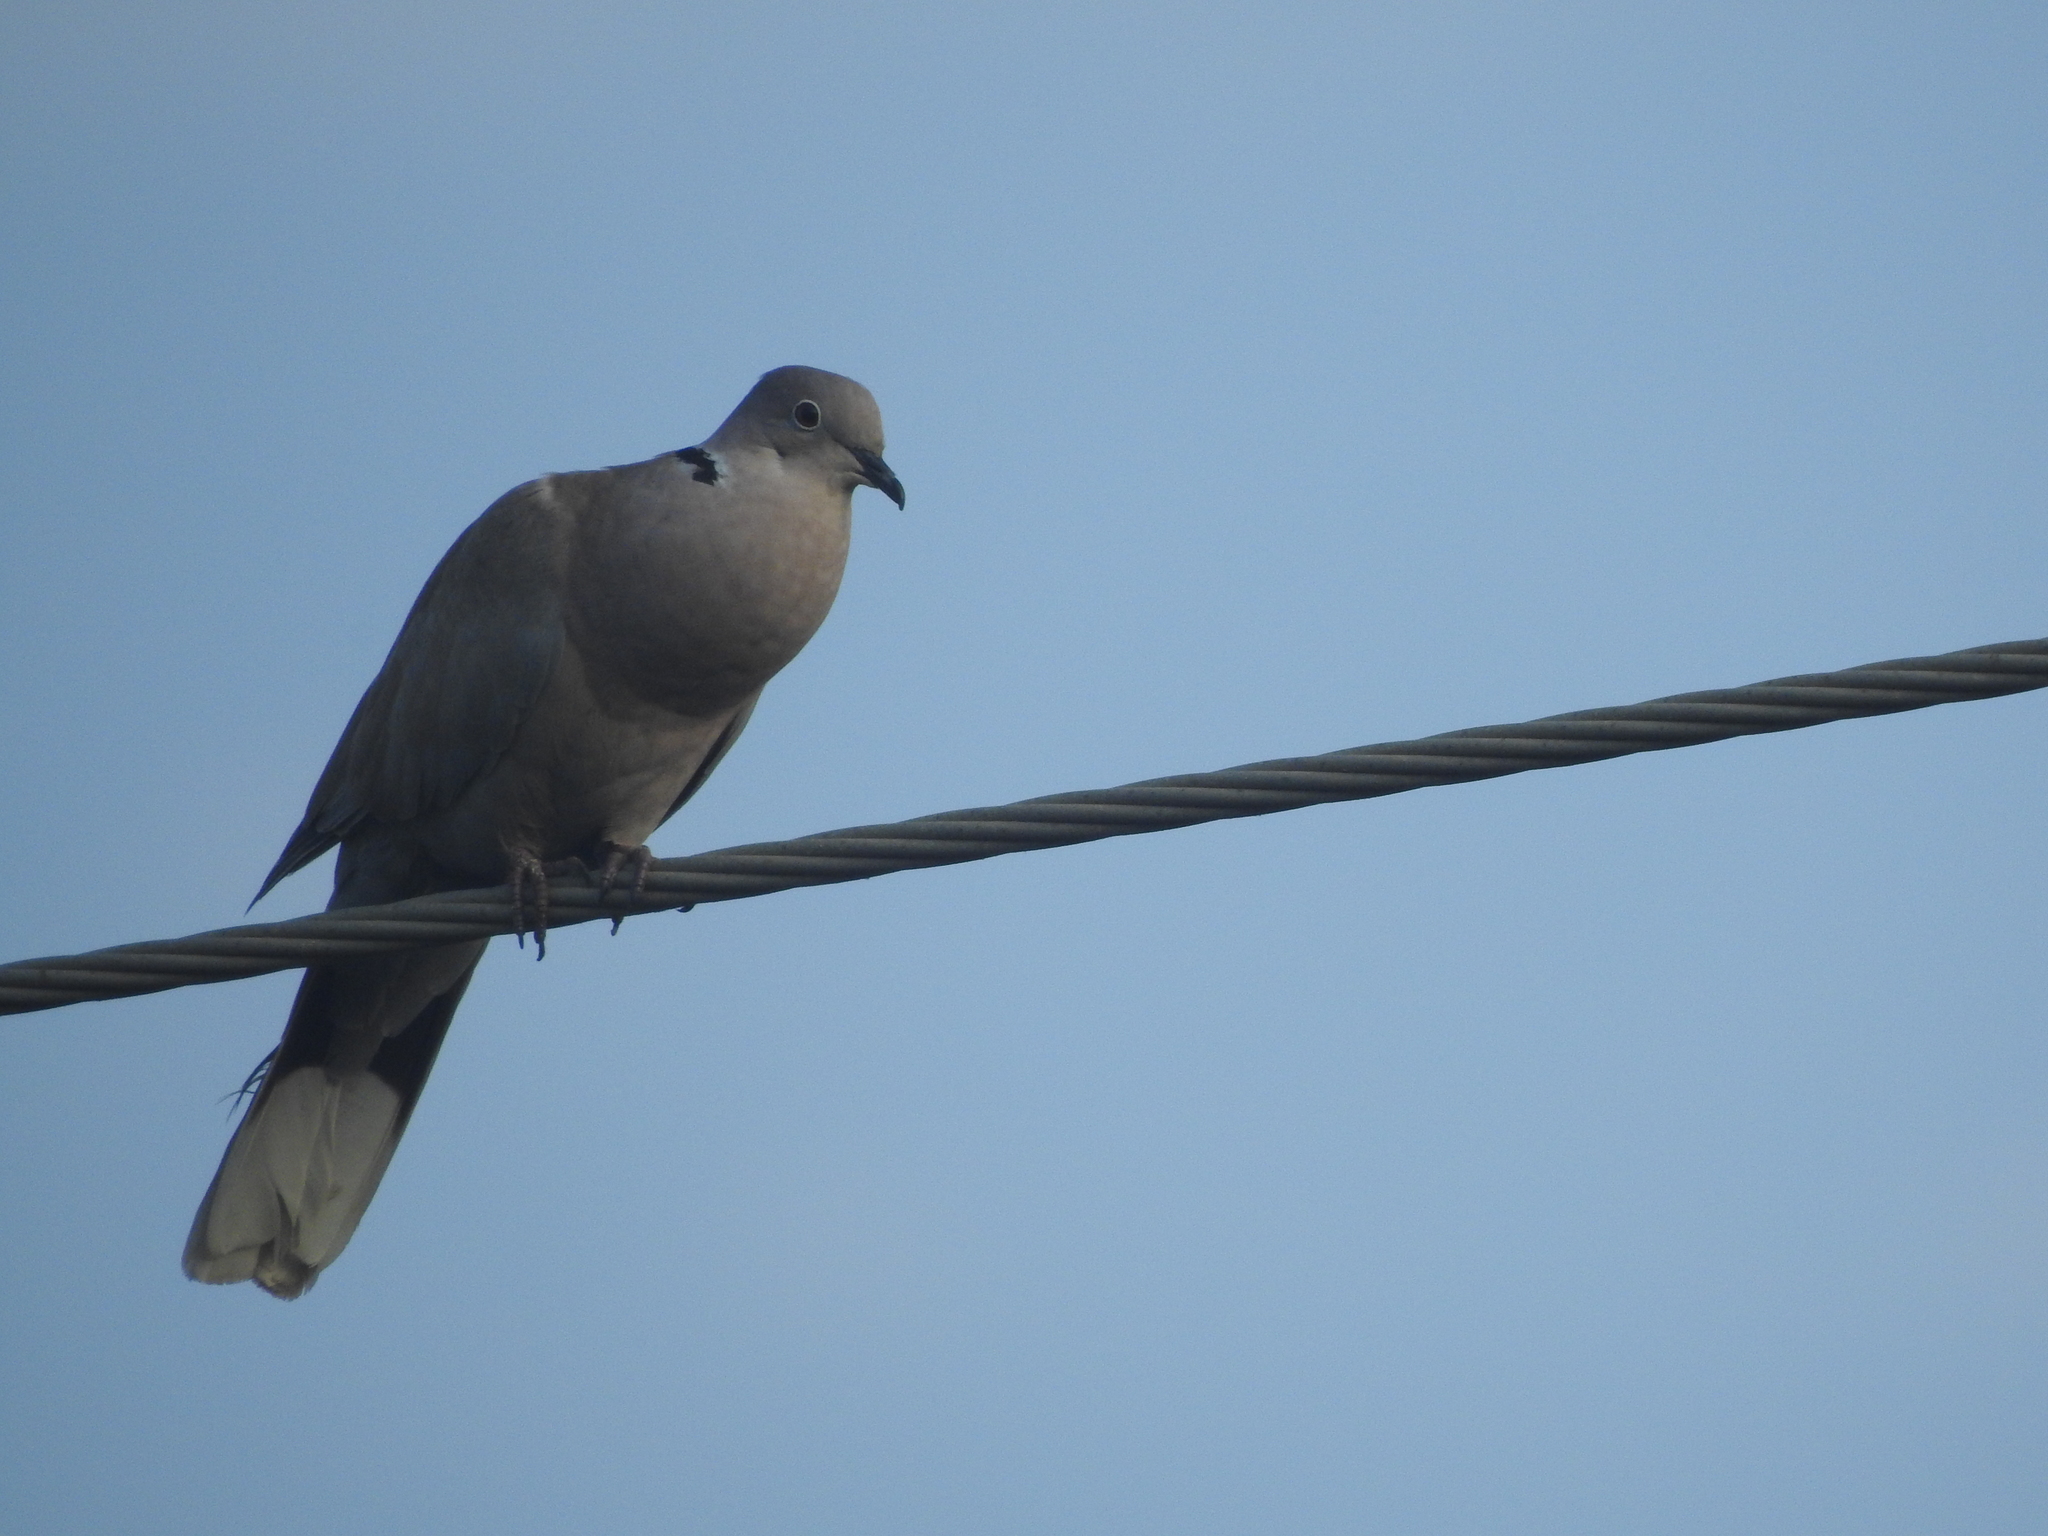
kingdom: Animalia
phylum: Chordata
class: Aves
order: Columbiformes
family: Columbidae
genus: Streptopelia
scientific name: Streptopelia decaocto
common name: Eurasian collared dove
